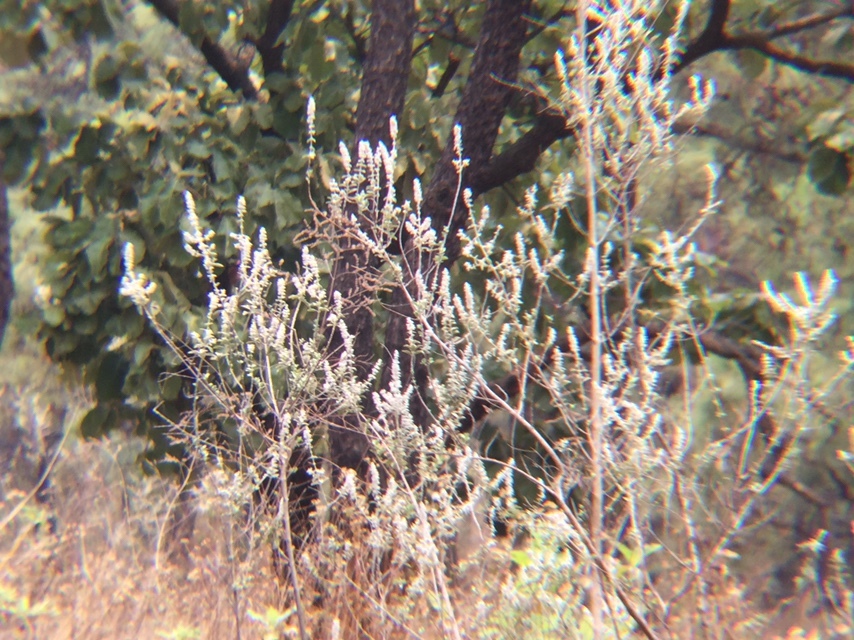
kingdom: Plantae
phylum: Tracheophyta
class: Magnoliopsida
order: Lamiales
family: Lamiaceae
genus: Condea
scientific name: Condea albida
